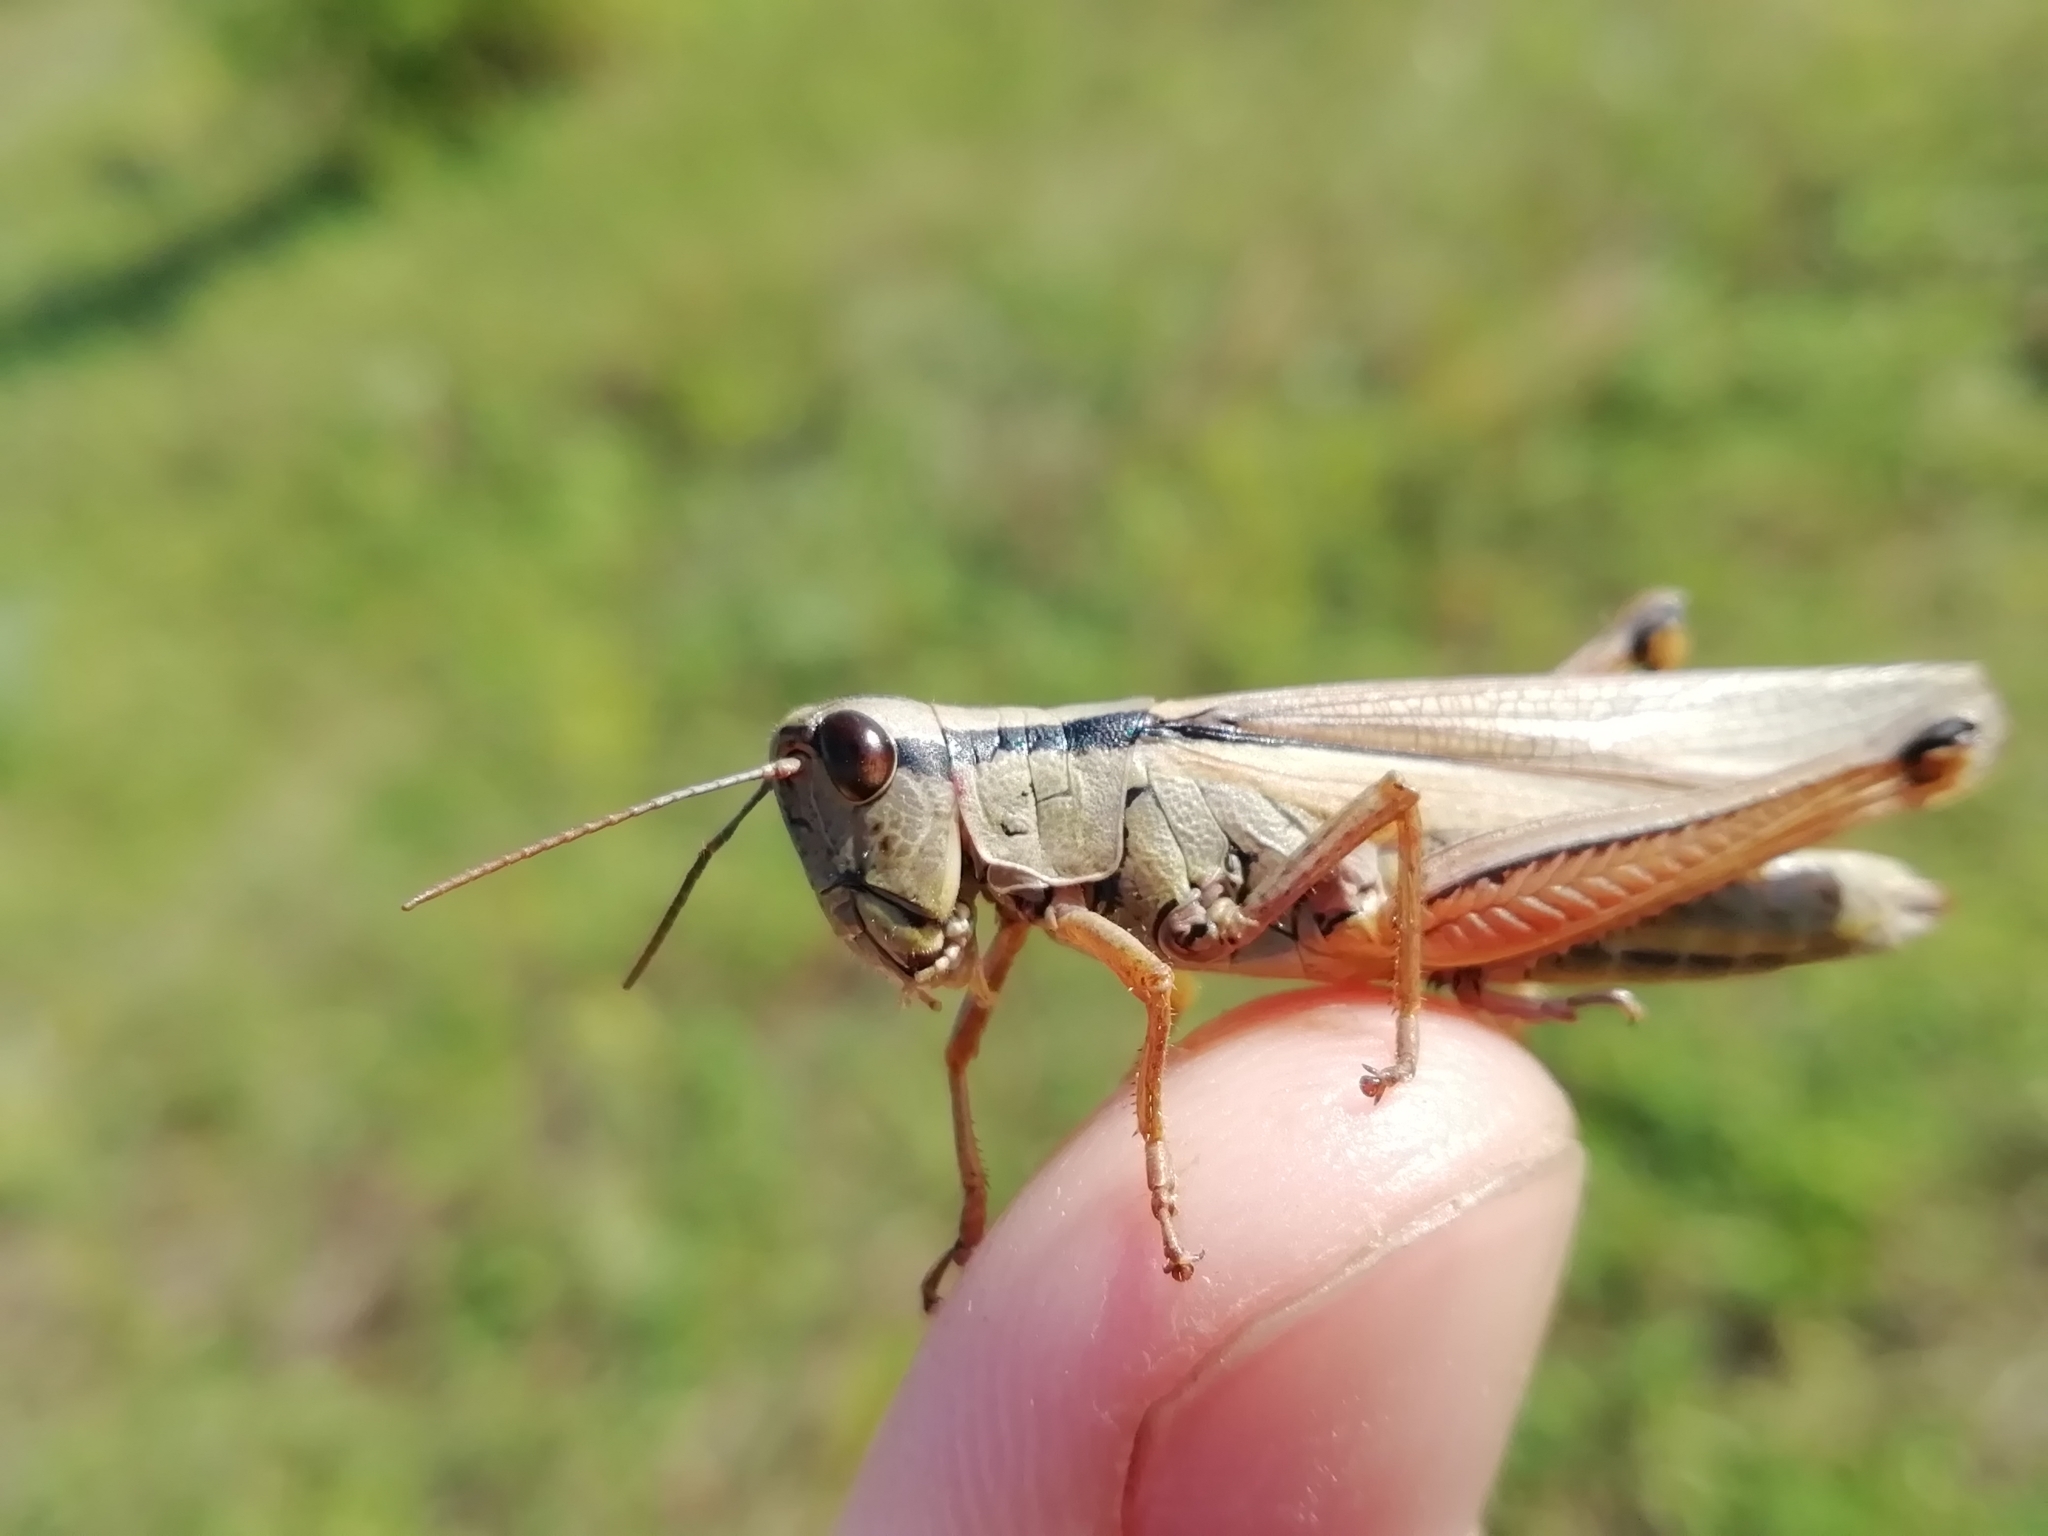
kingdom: Animalia
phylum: Arthropoda
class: Insecta
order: Orthoptera
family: Acrididae
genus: Mecostethus
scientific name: Mecostethus parapleurus
